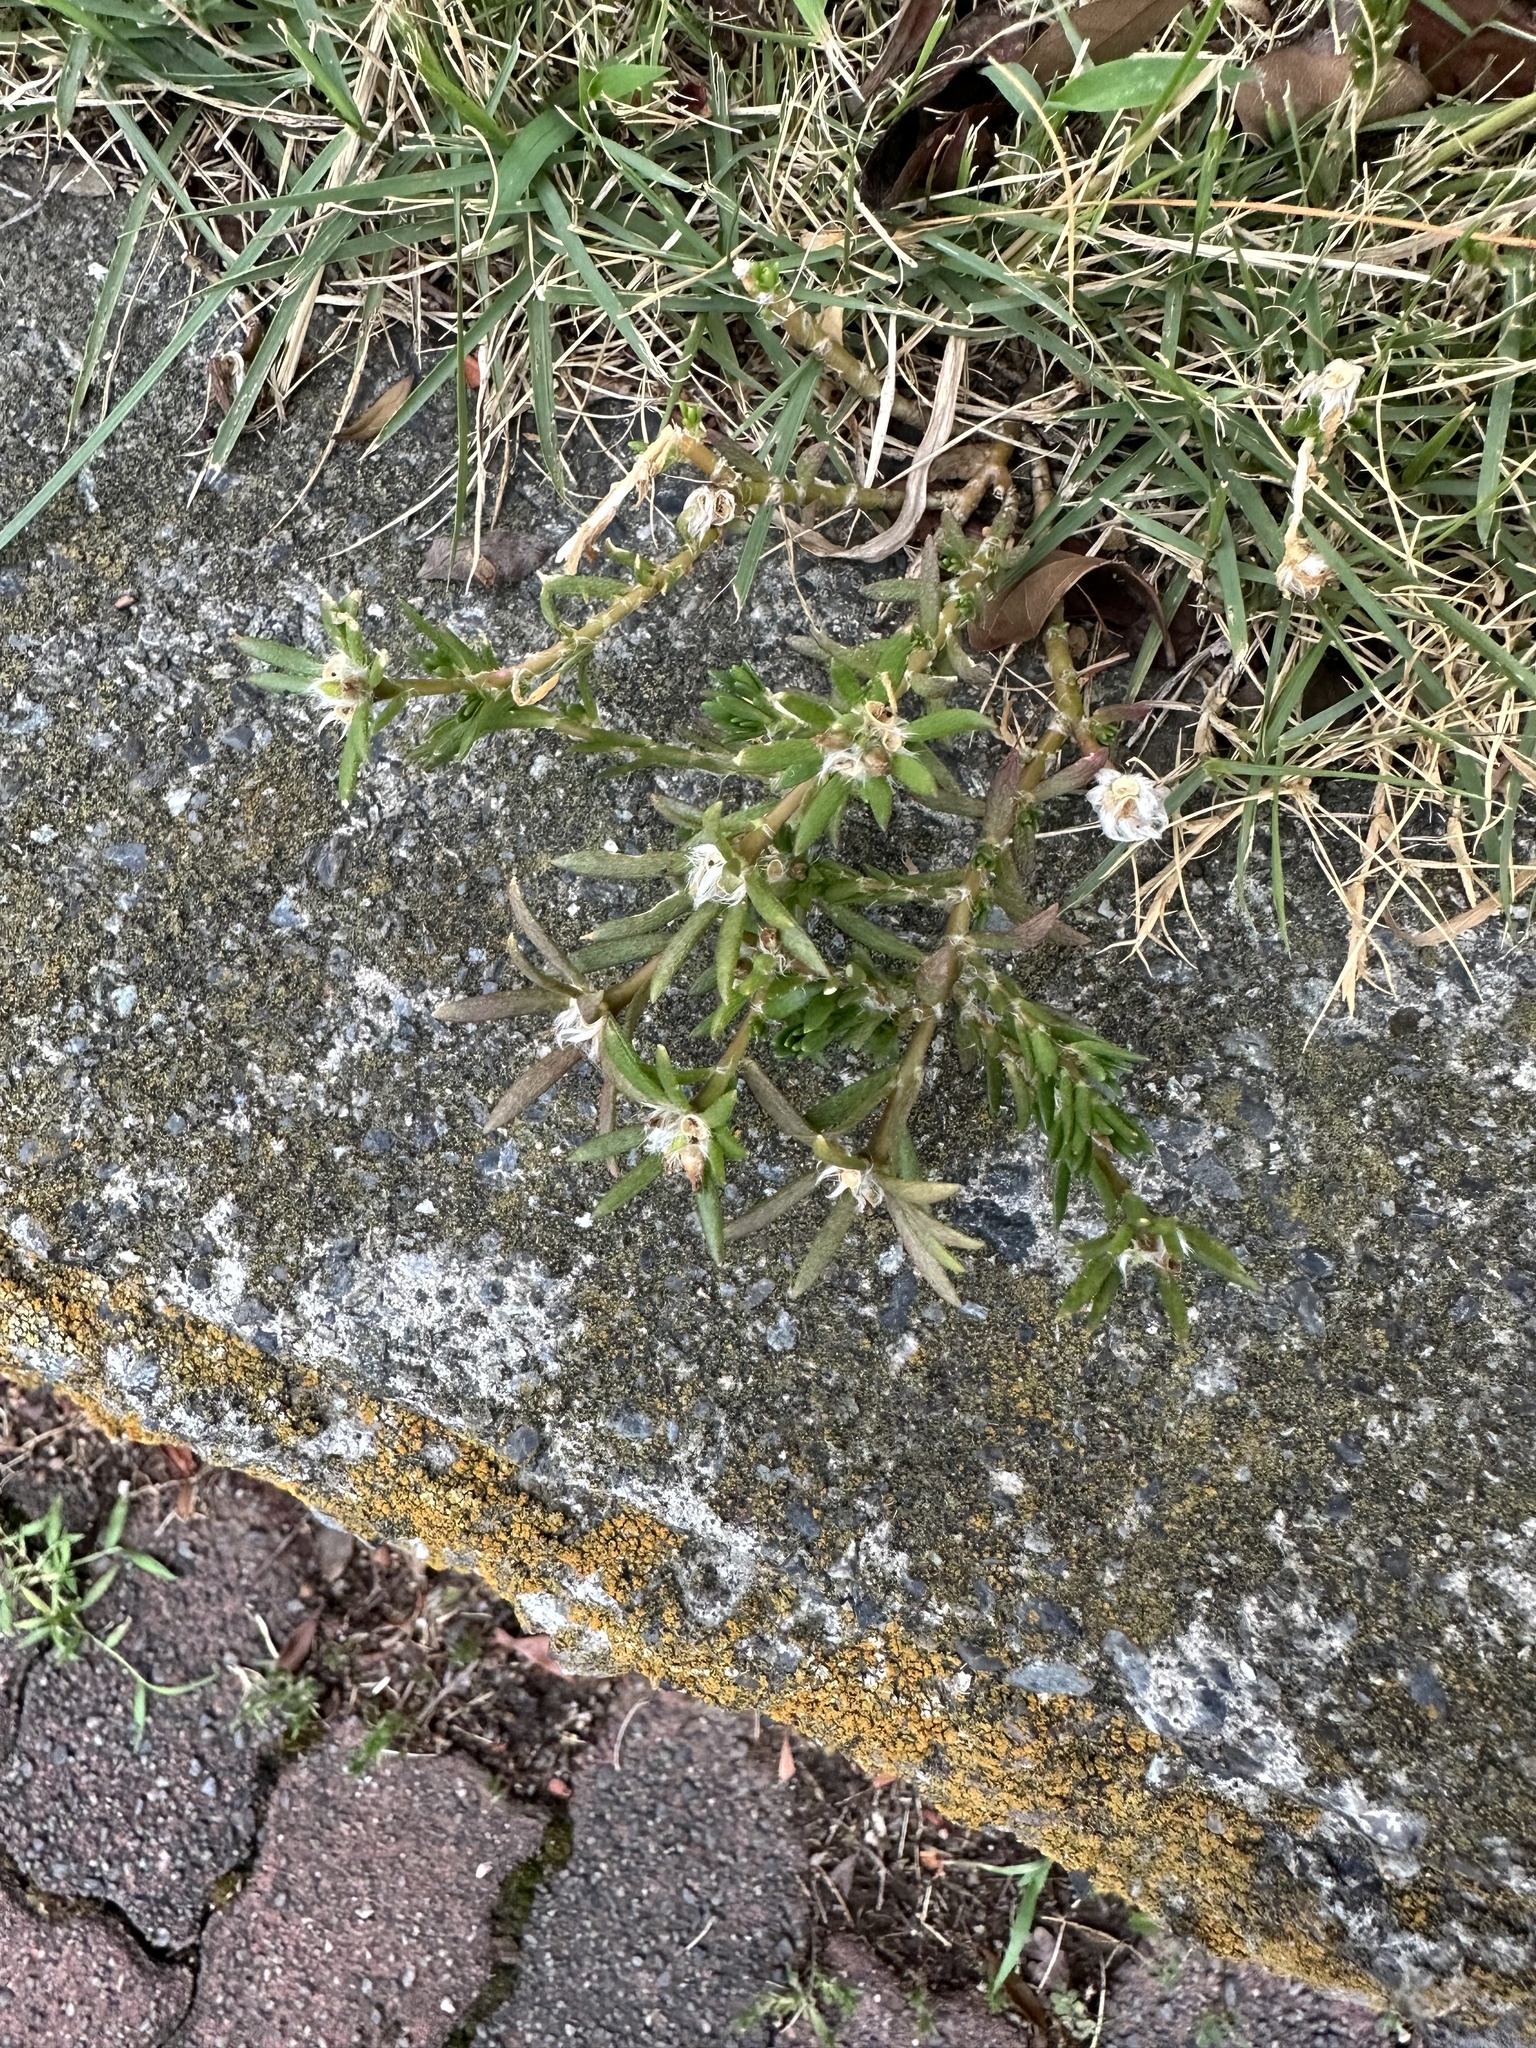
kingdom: Plantae
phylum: Tracheophyta
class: Magnoliopsida
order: Caryophyllales
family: Portulacaceae
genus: Portulaca
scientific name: Portulaca pilosa
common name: Kiss me quick
